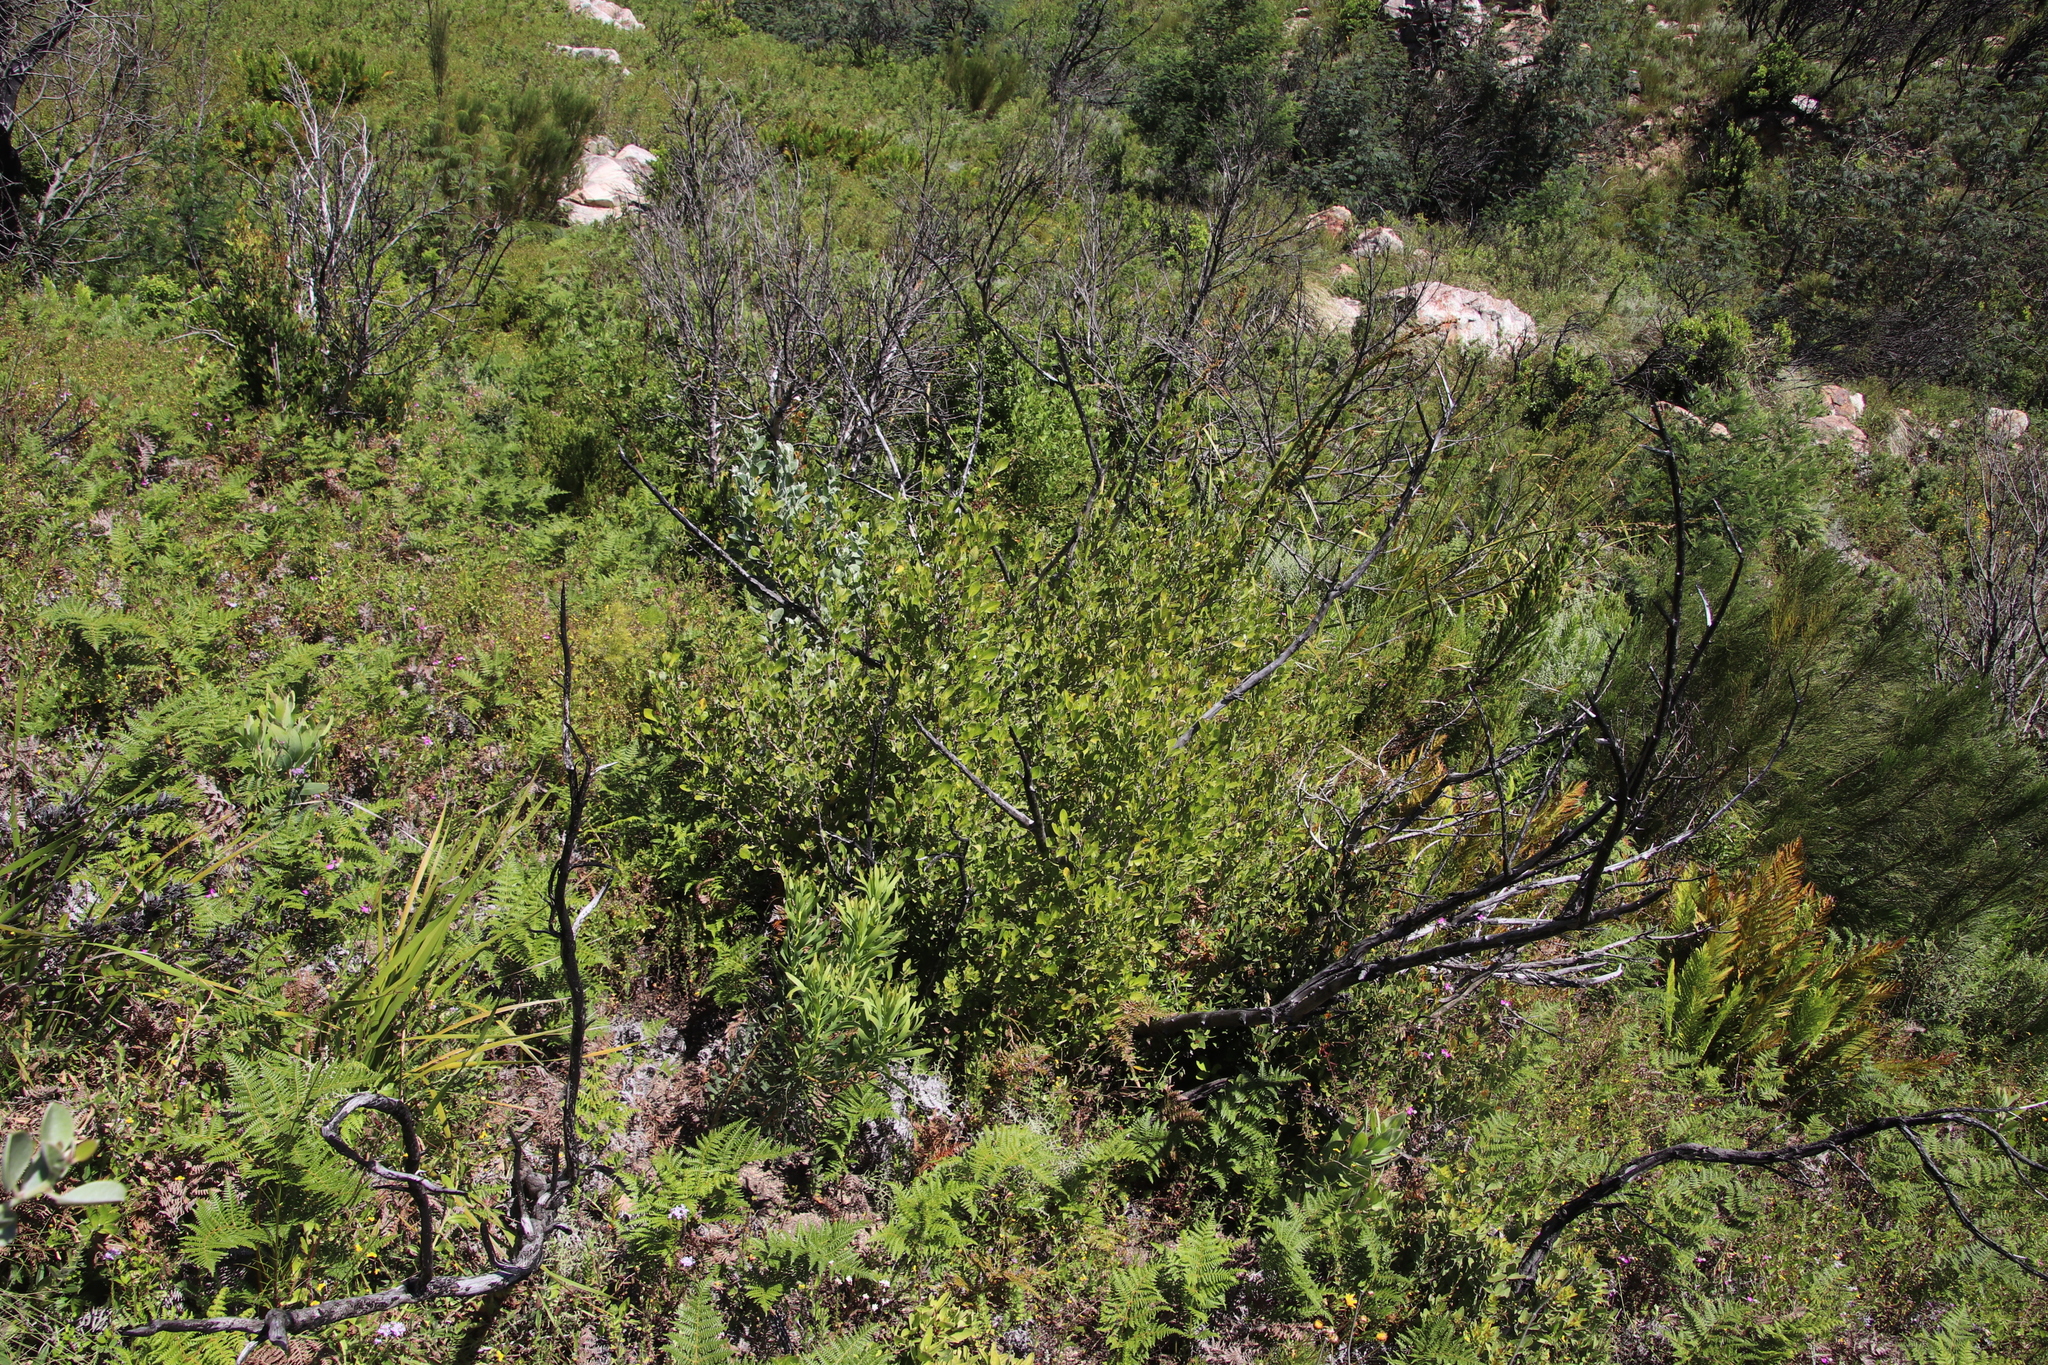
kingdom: Plantae
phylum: Tracheophyta
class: Magnoliopsida
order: Celastrales
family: Celastraceae
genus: Elaeodendron
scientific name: Elaeodendron schinoides
